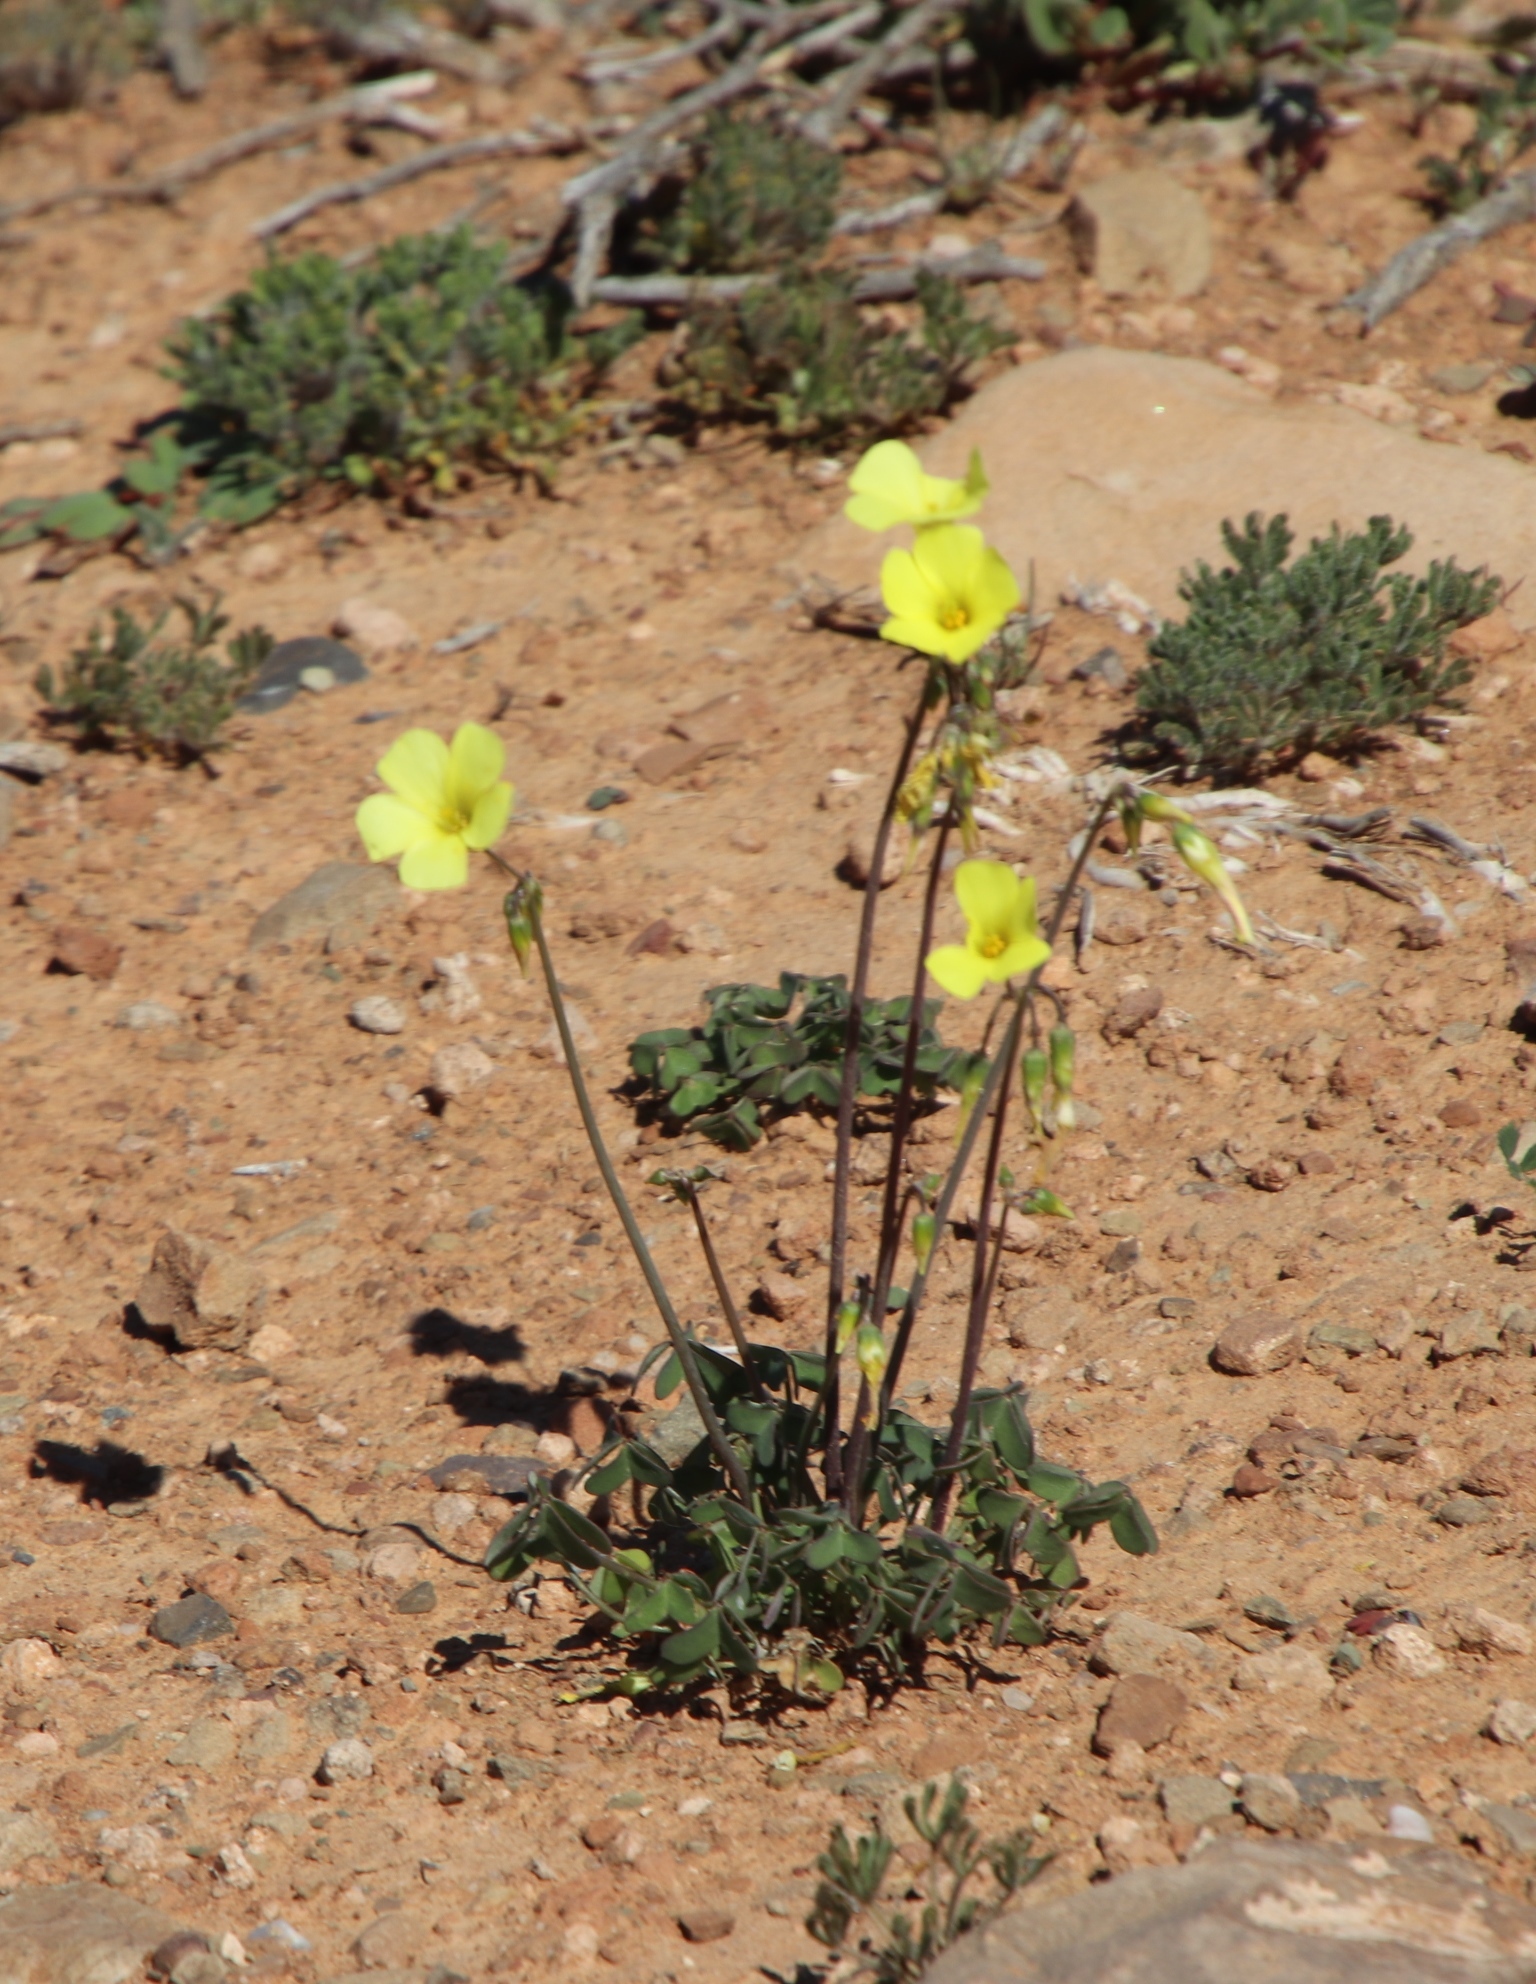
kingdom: Plantae
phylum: Tracheophyta
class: Magnoliopsida
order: Oxalidales
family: Oxalidaceae
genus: Oxalis
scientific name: Oxalis pes-caprae
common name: Bermuda-buttercup
